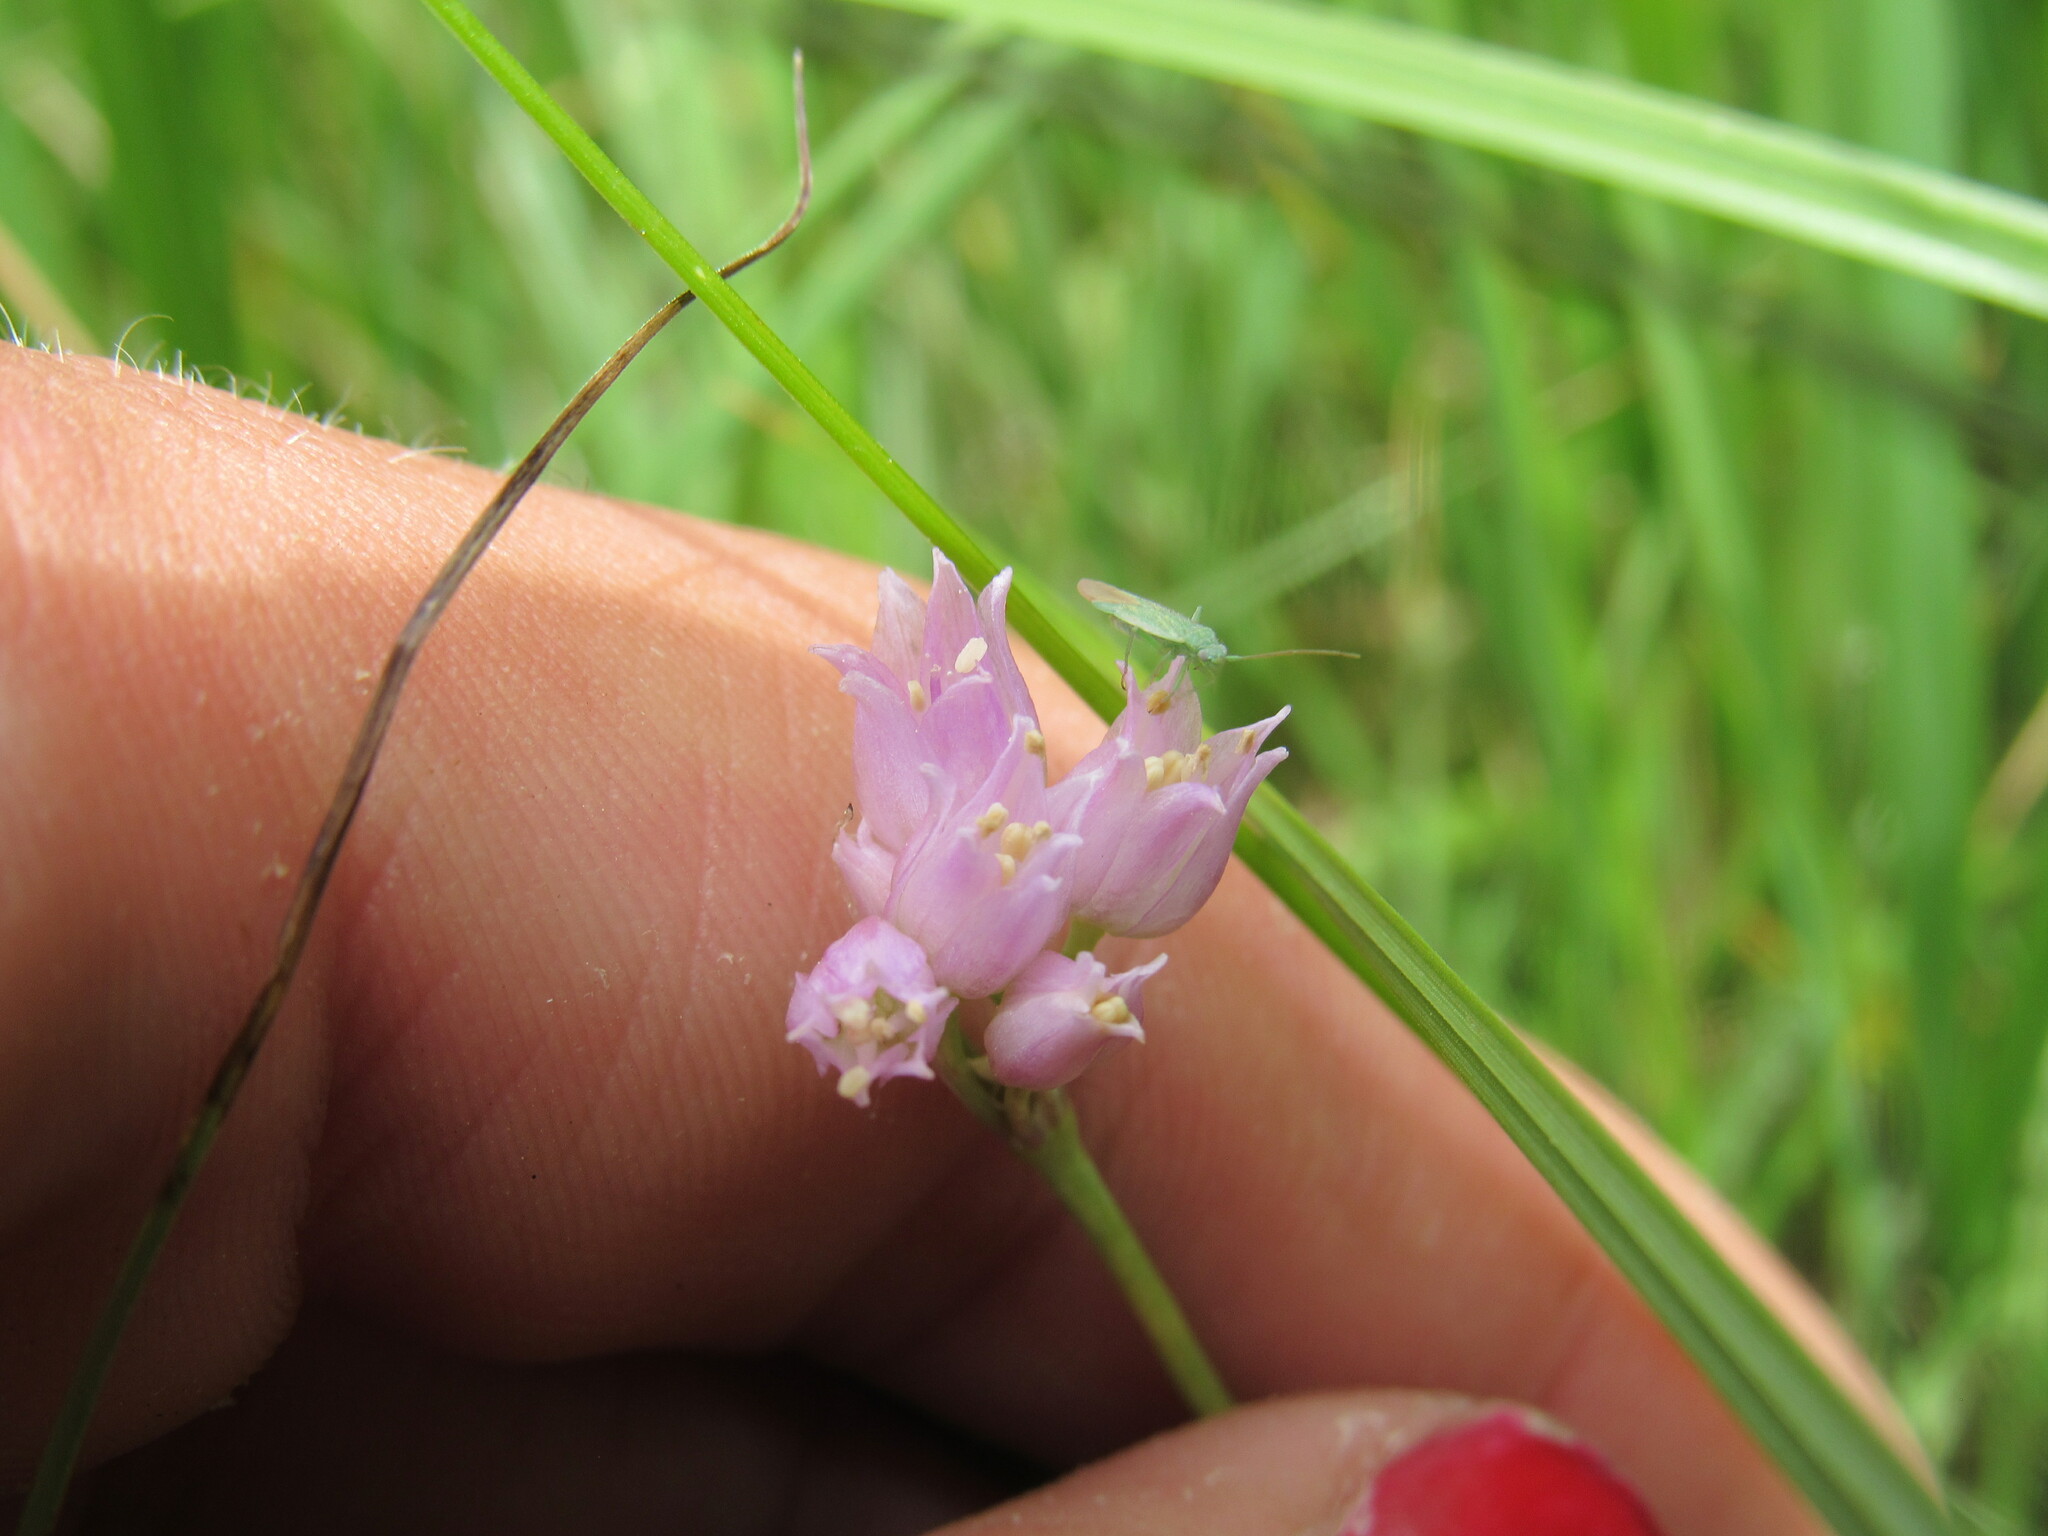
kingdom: Plantae
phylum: Tracheophyta
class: Liliopsida
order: Asparagales
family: Amaryllidaceae
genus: Allium
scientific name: Allium geyeri
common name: Geyer's onion
